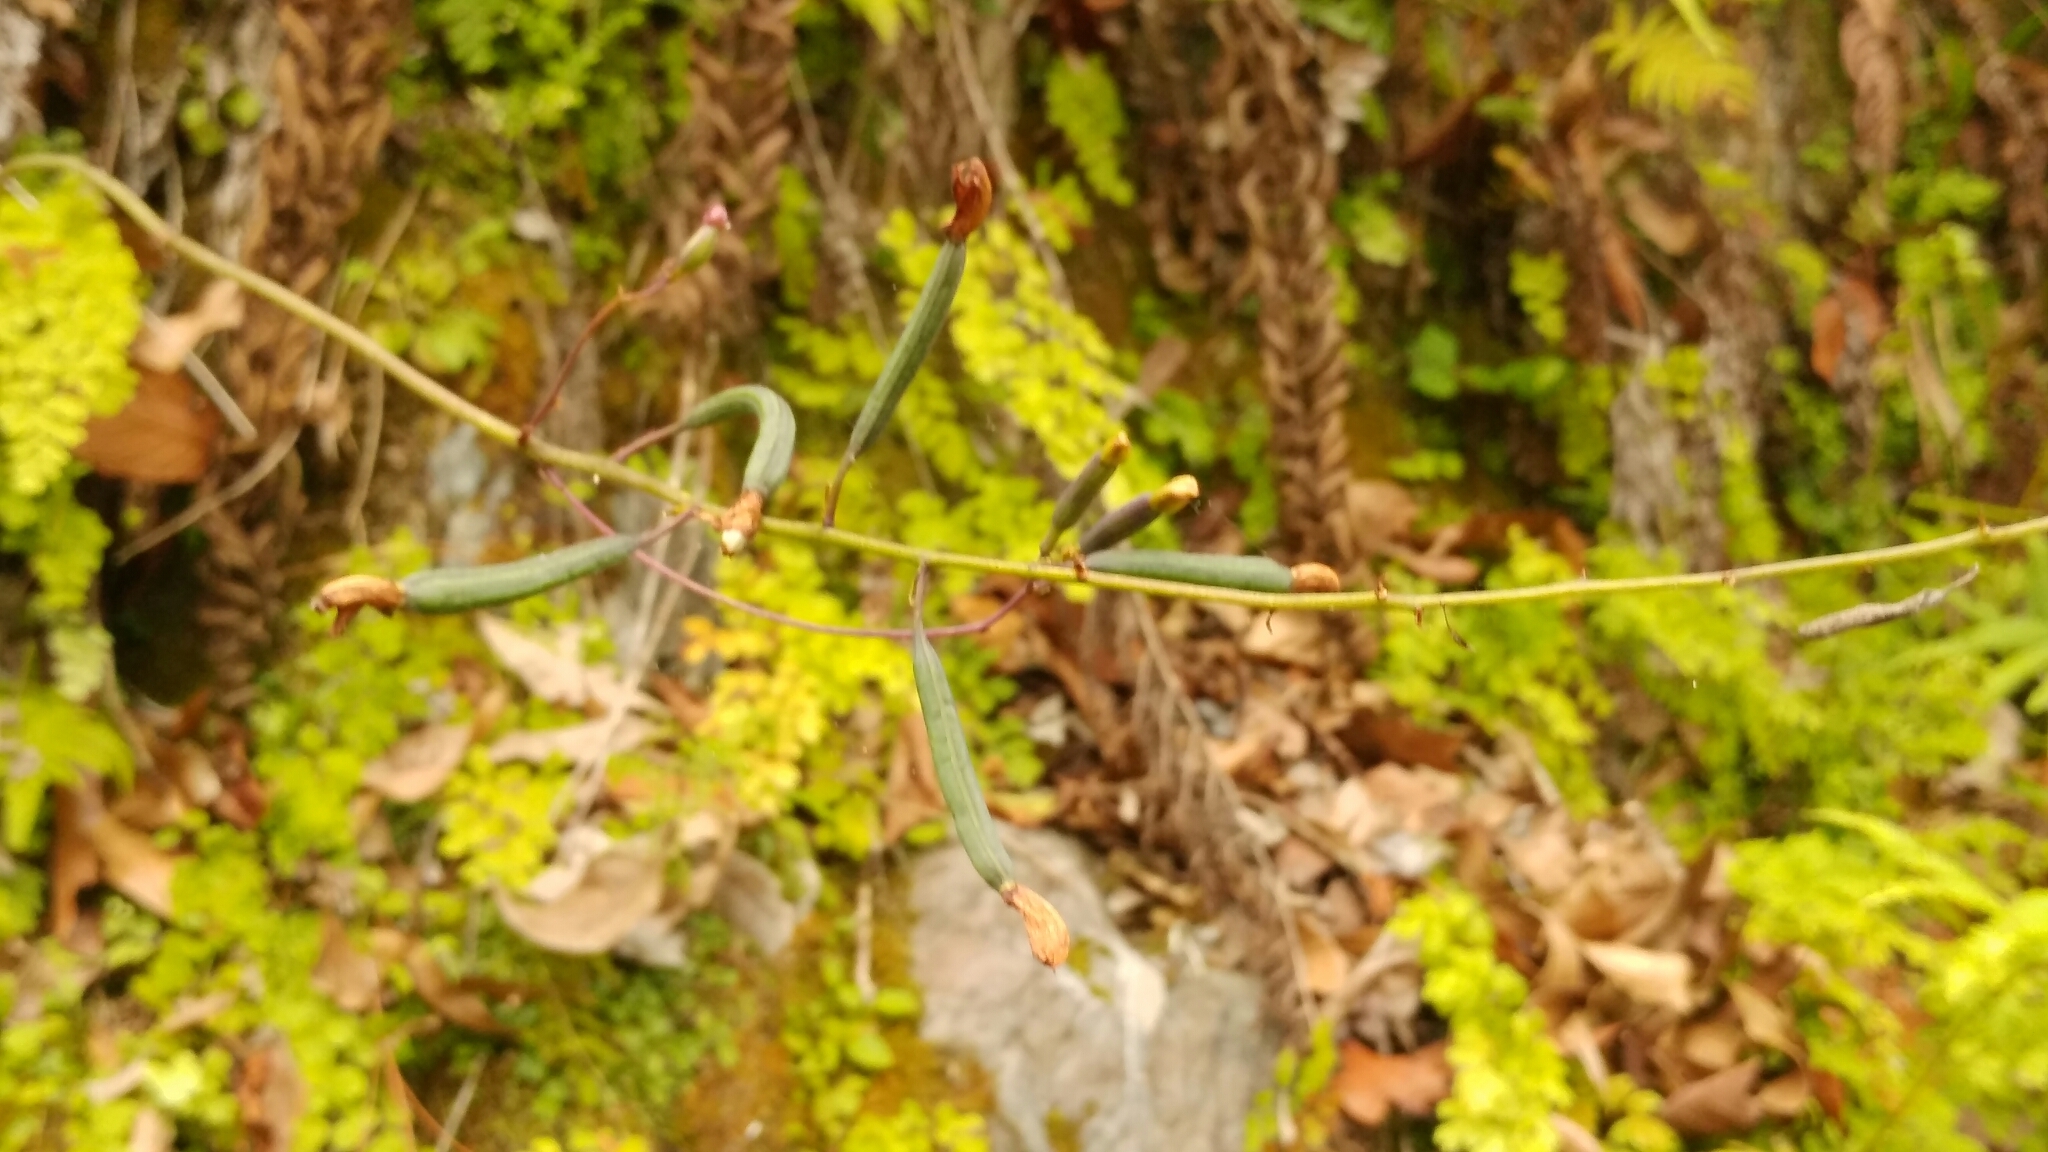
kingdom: Plantae
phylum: Tracheophyta
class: Liliopsida
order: Asparagales
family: Orchidaceae
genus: Bletia
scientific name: Bletia purpurea
